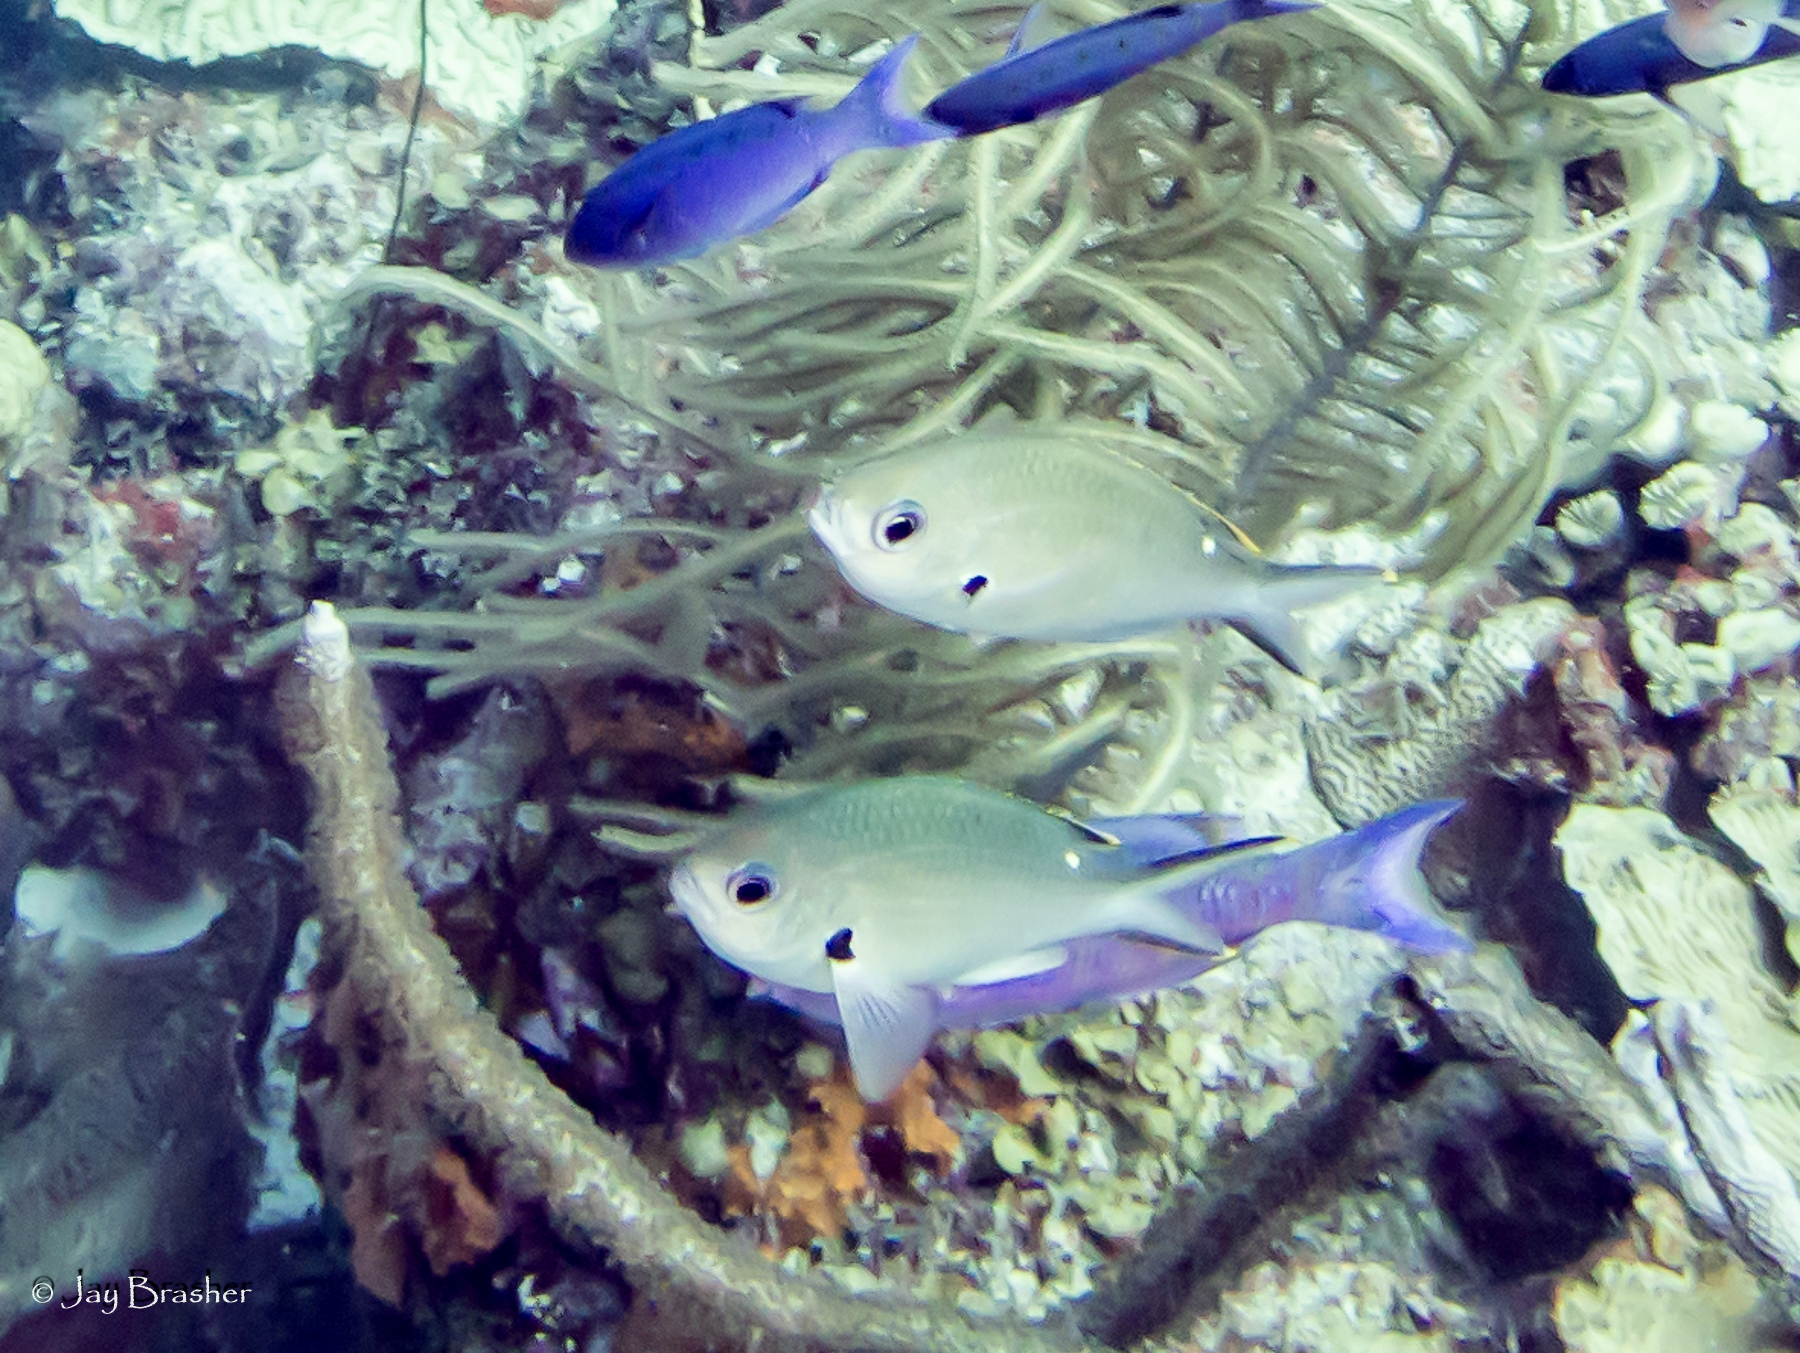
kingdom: Animalia
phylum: Chordata
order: Perciformes
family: Pomacentridae
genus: Chromis
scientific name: Chromis multilineata
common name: Brown chromis
